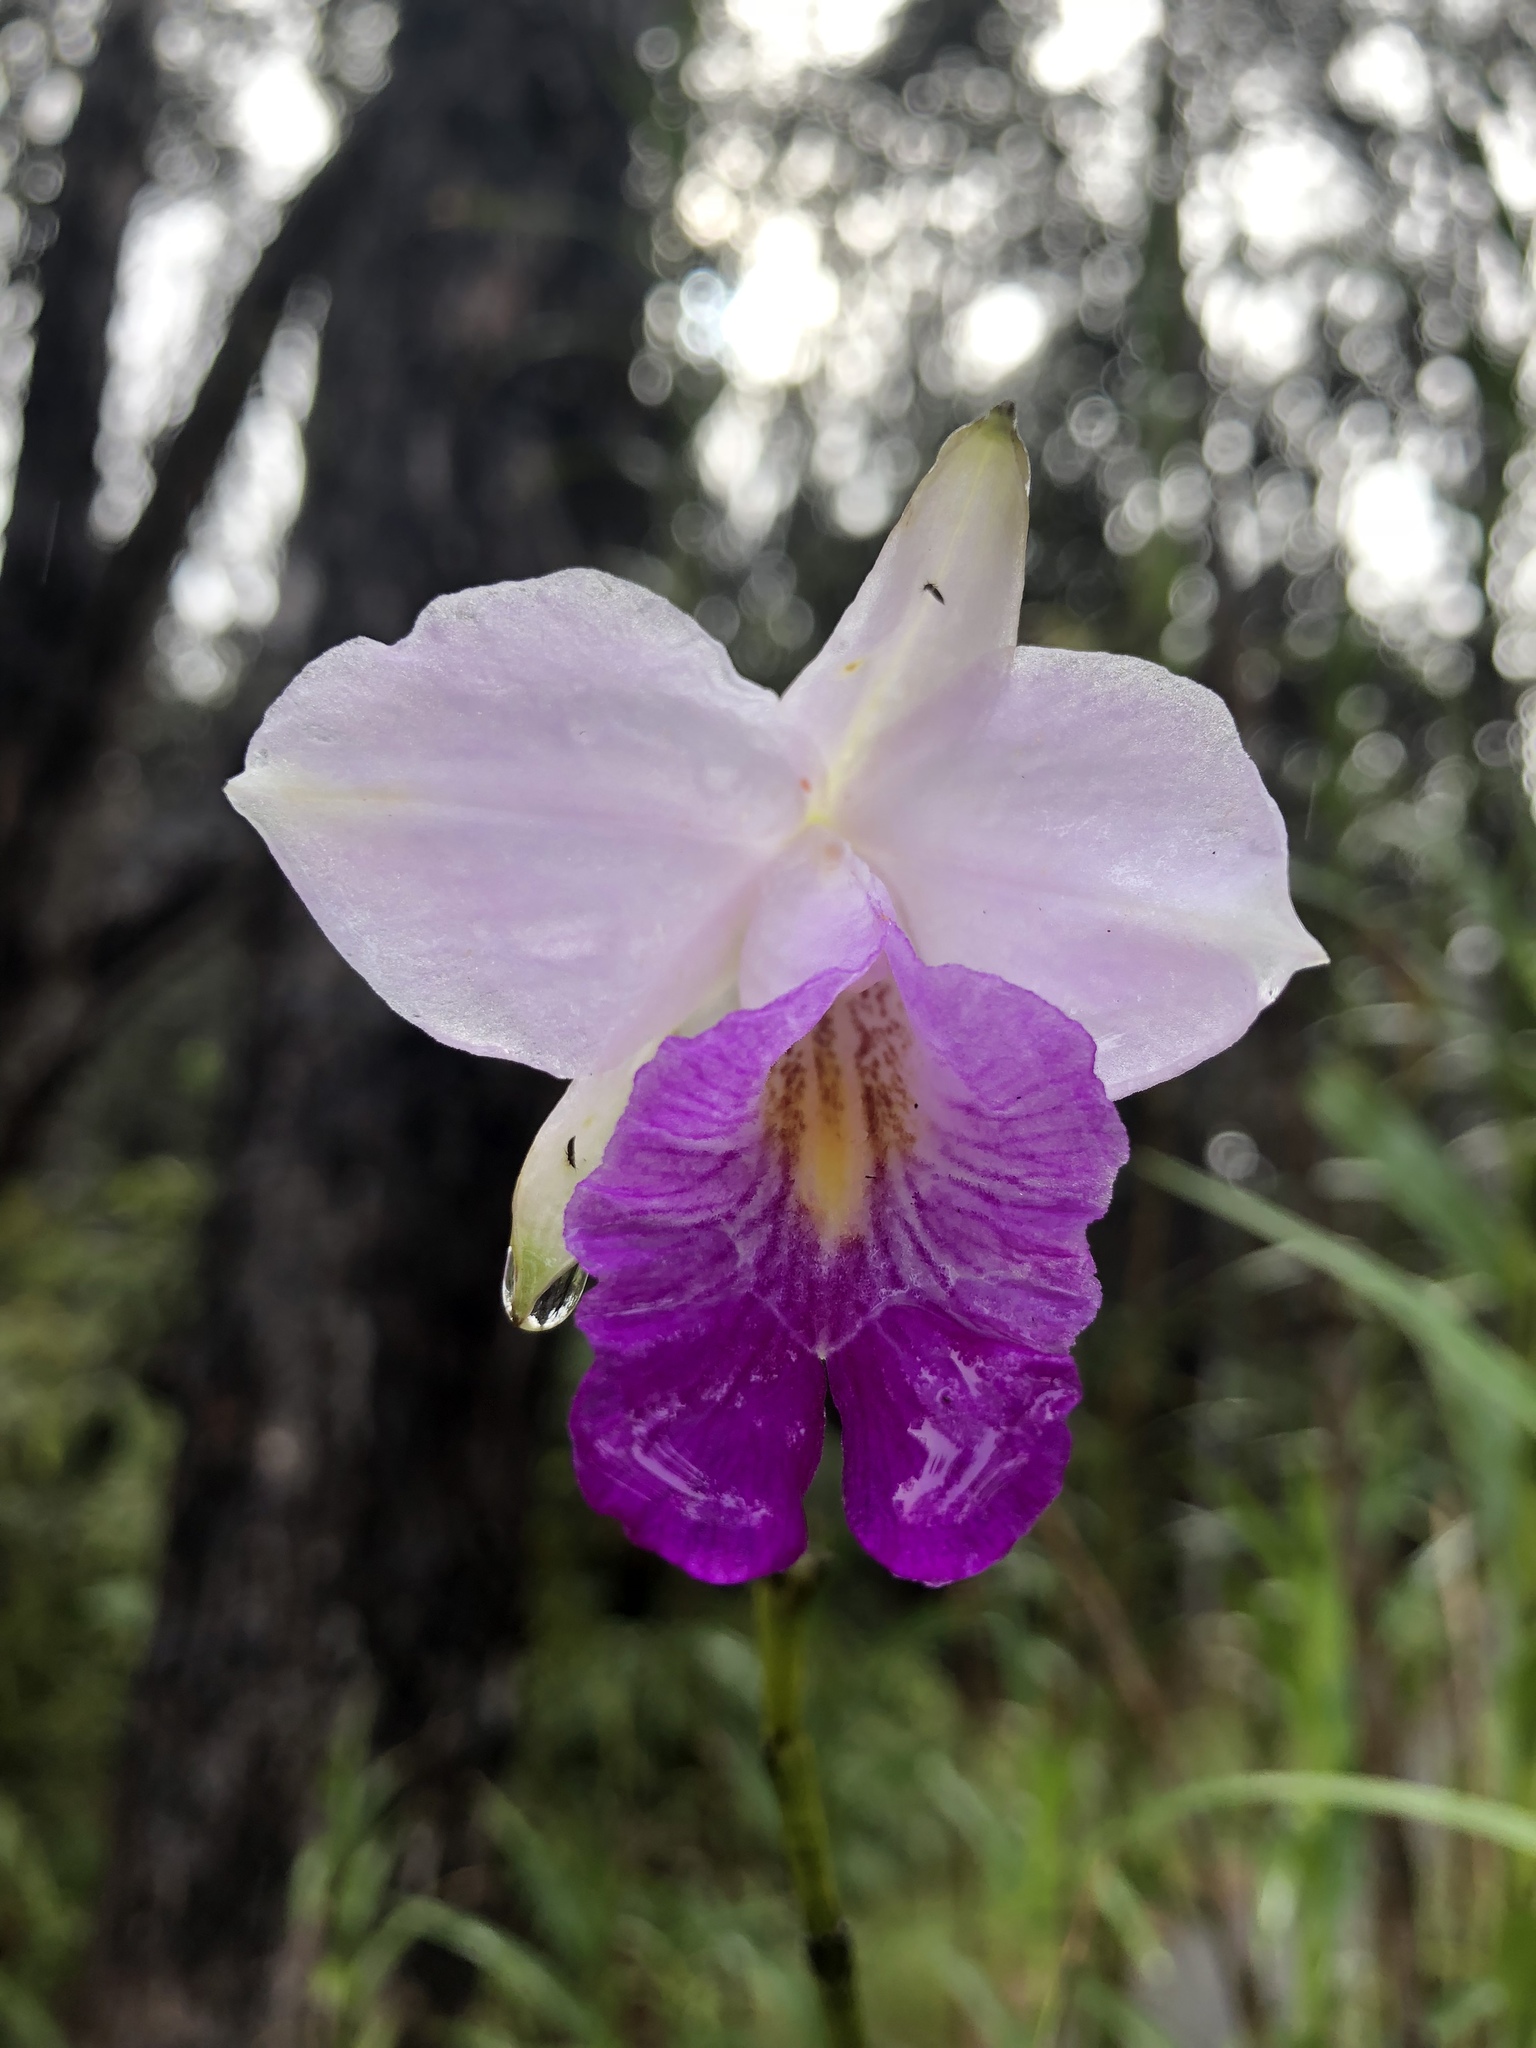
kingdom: Plantae
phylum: Tracheophyta
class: Liliopsida
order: Asparagales
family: Orchidaceae
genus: Arundina
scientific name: Arundina graminifolia
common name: Bamboo orchid
